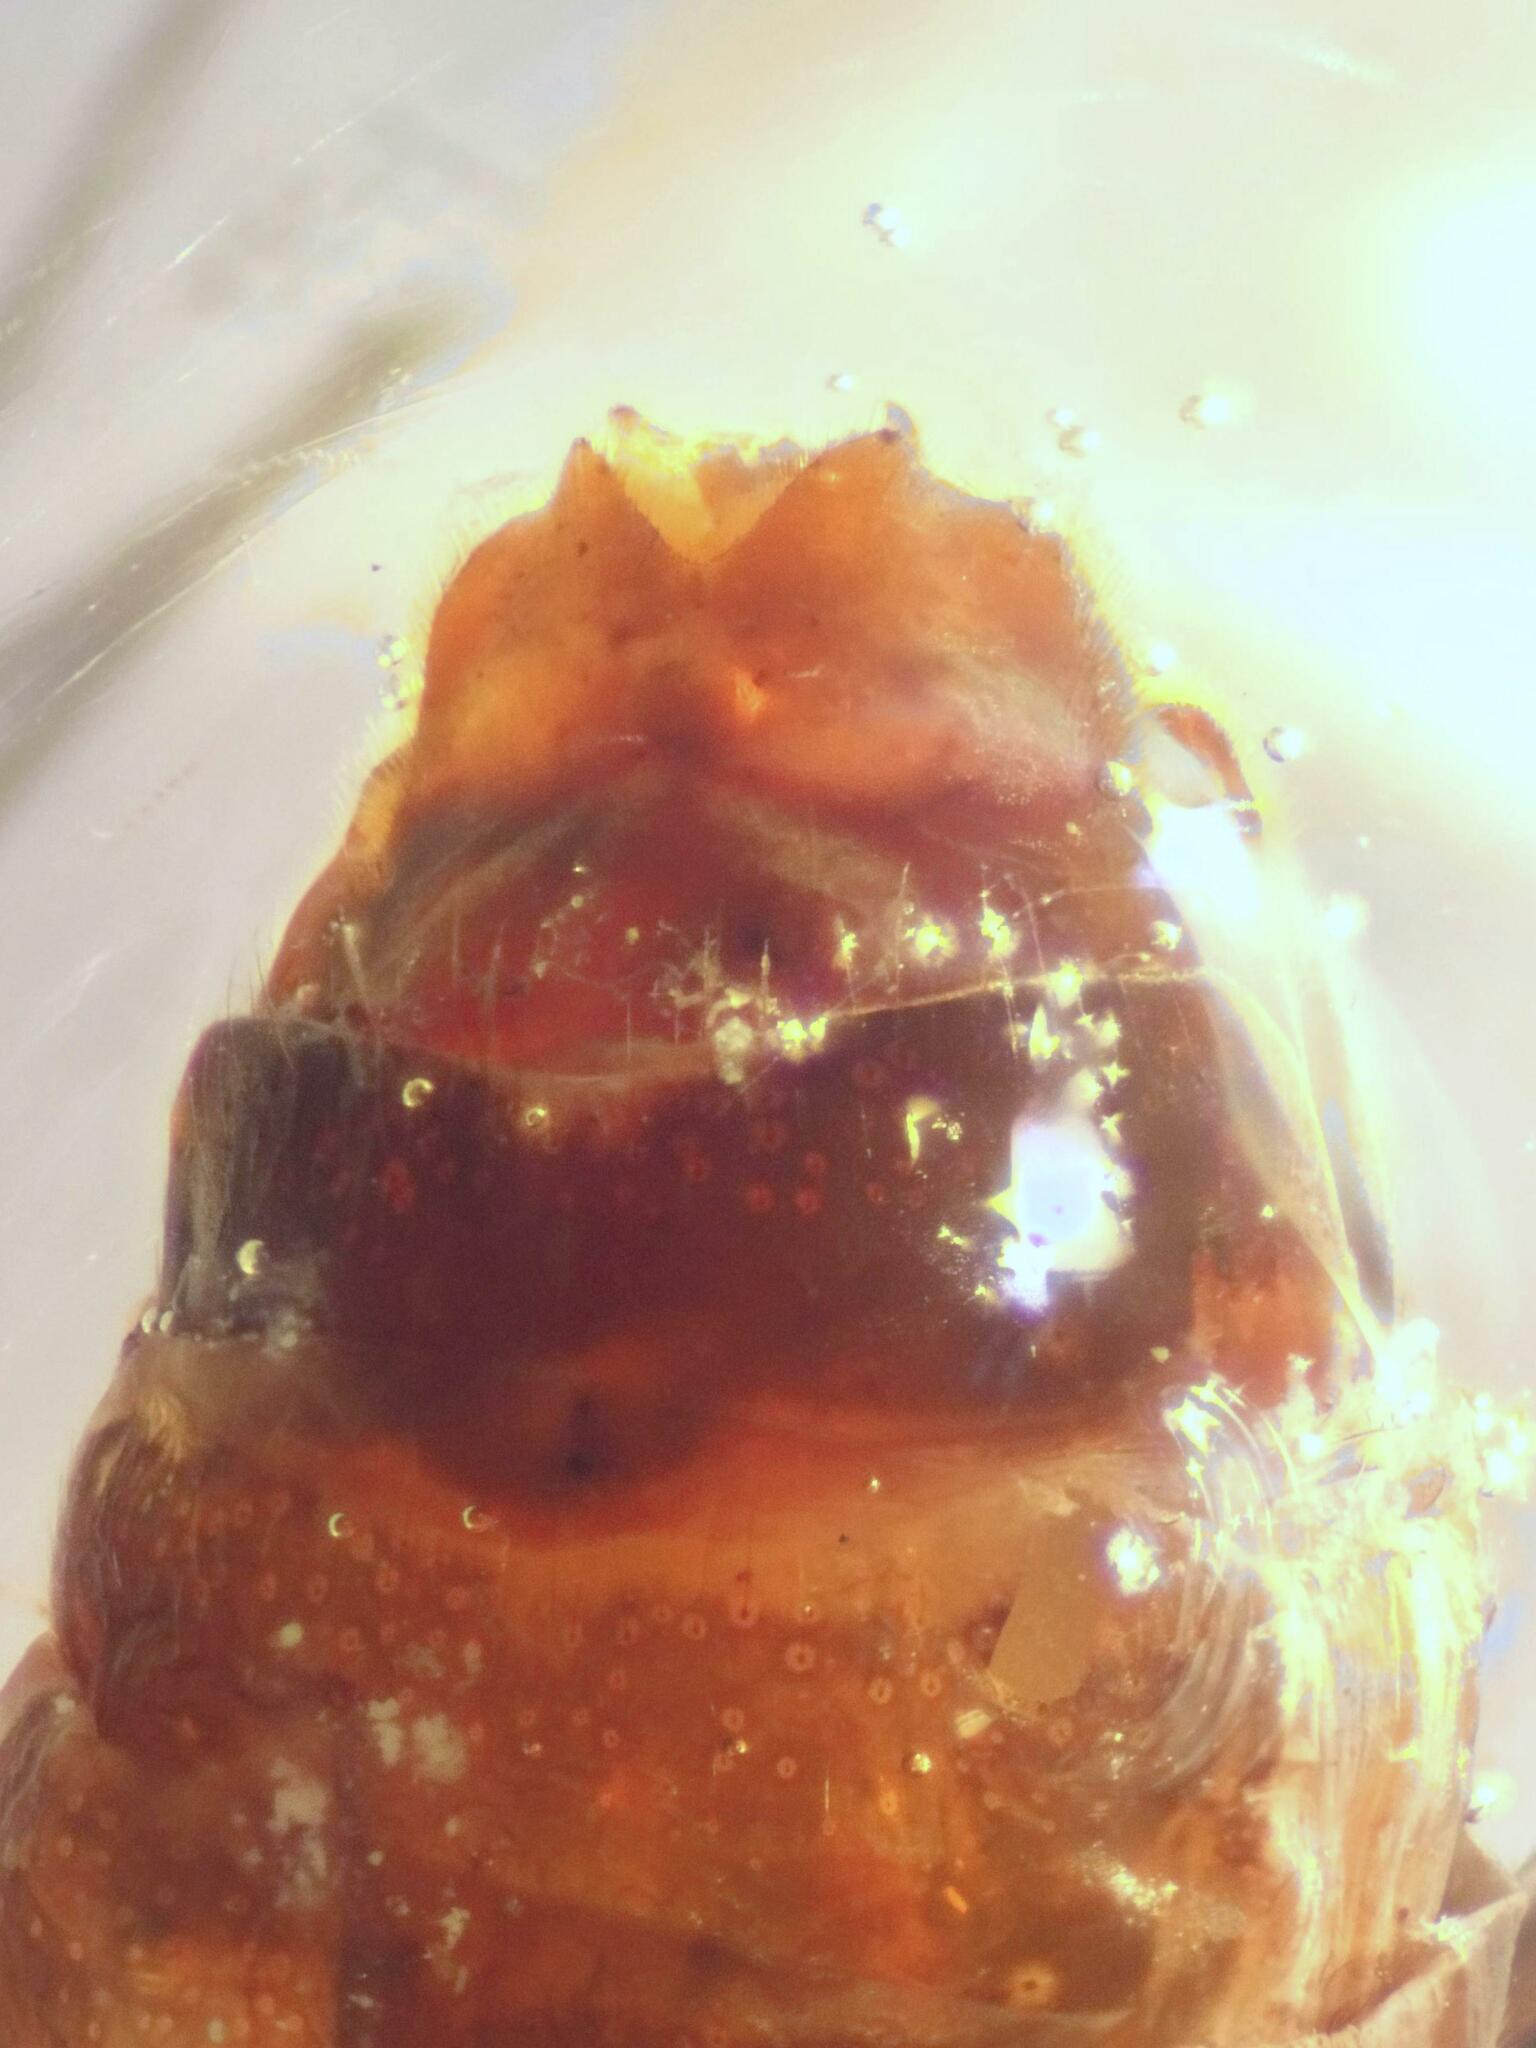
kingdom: Animalia
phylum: Arthropoda
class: Insecta
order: Trichoptera
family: Phryganeidae
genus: Phryganea
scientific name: Phryganea bipunctata
